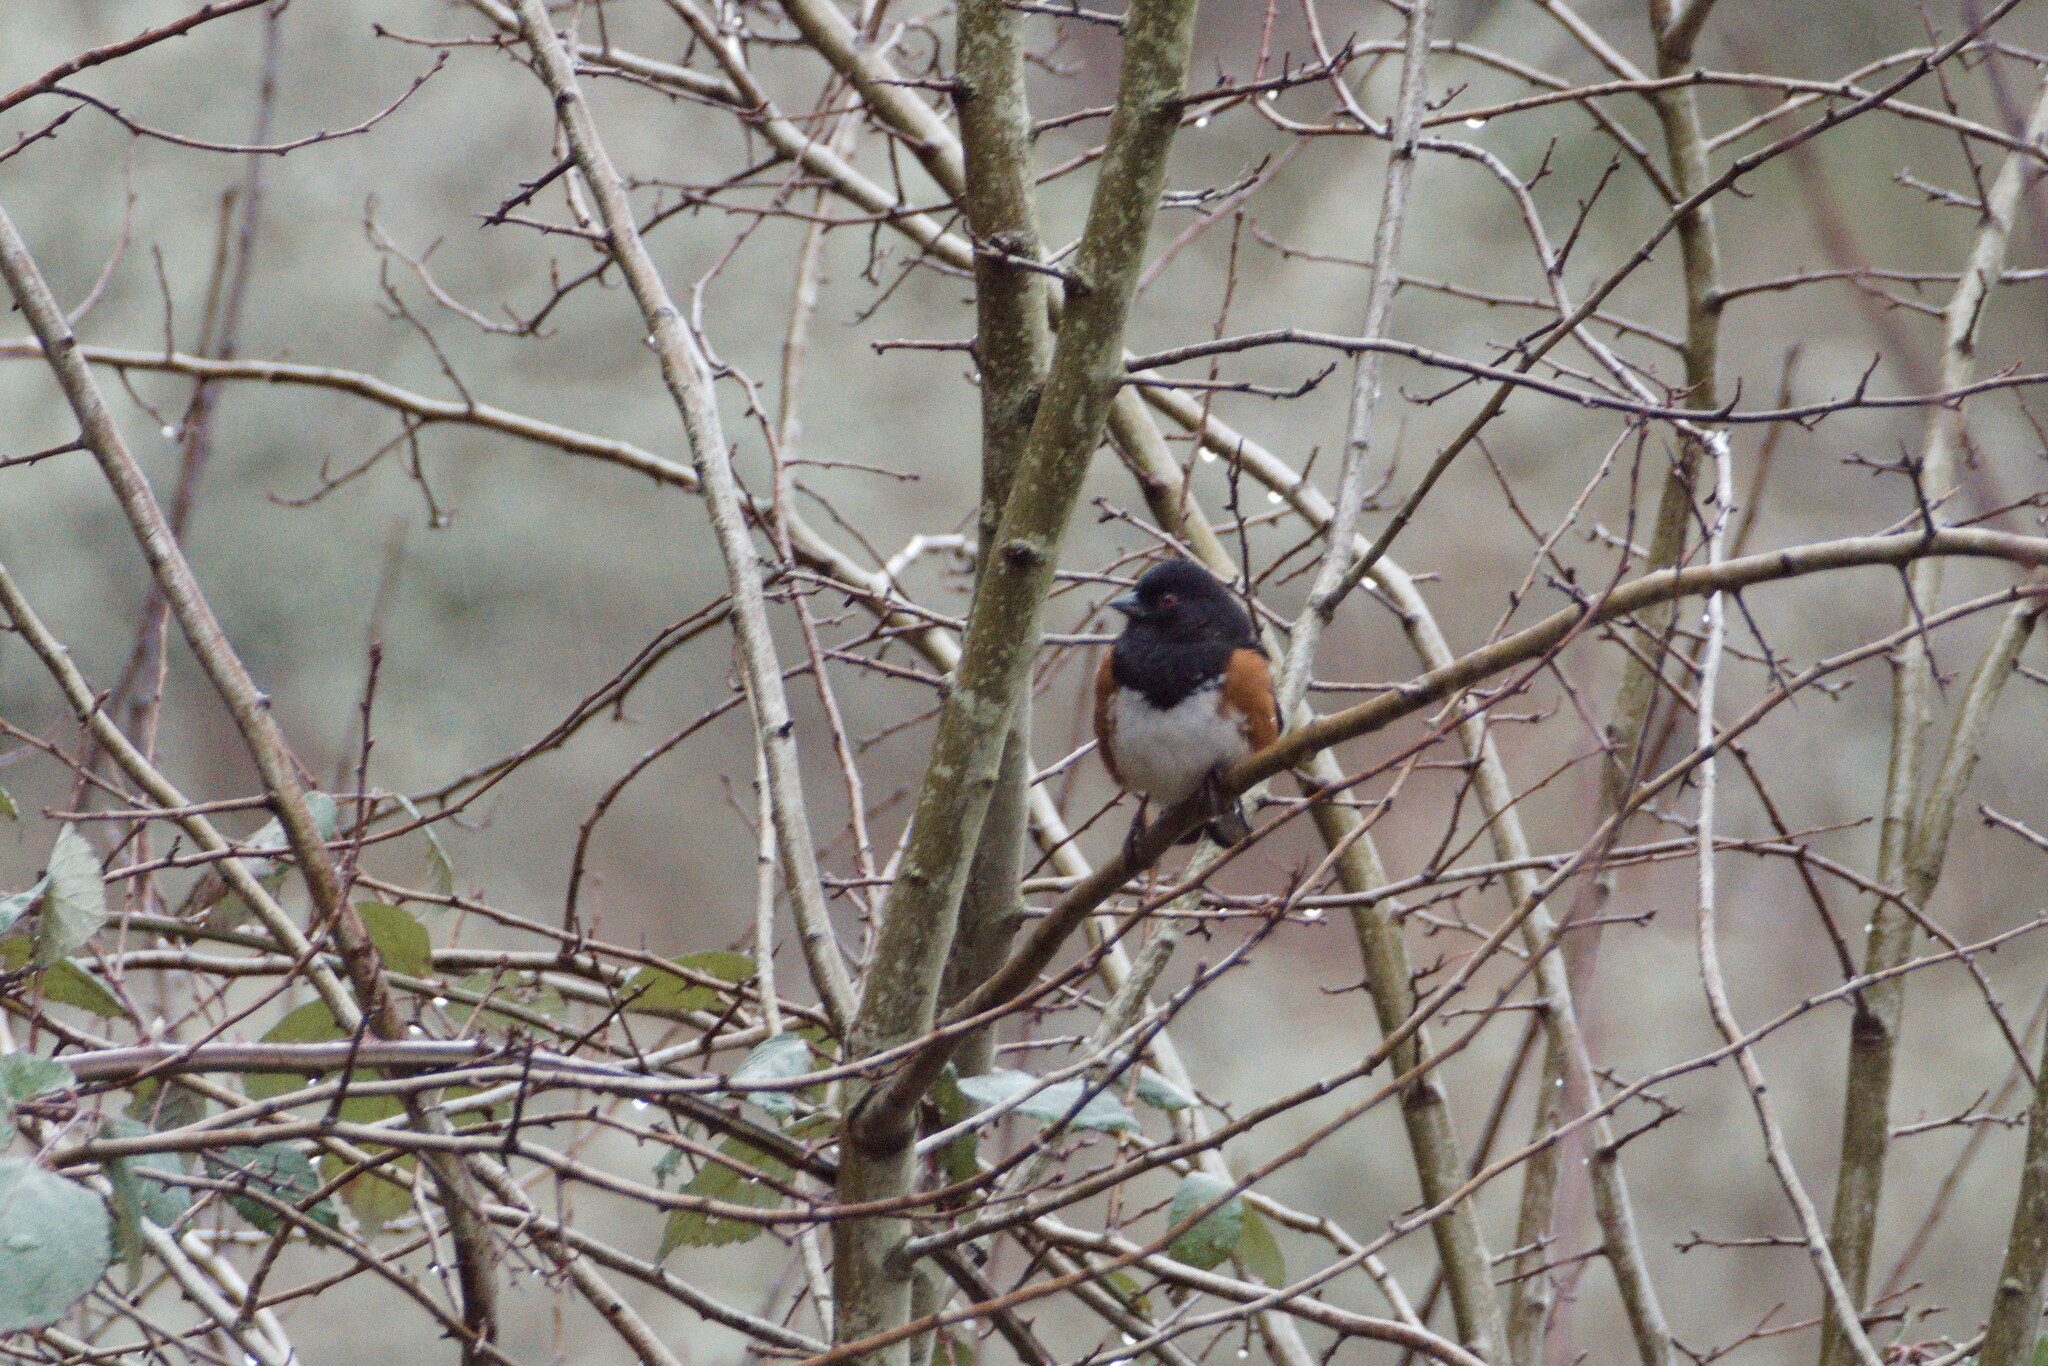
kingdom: Animalia
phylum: Chordata
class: Aves
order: Passeriformes
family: Passerellidae
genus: Pipilo
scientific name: Pipilo maculatus
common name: Spotted towhee
